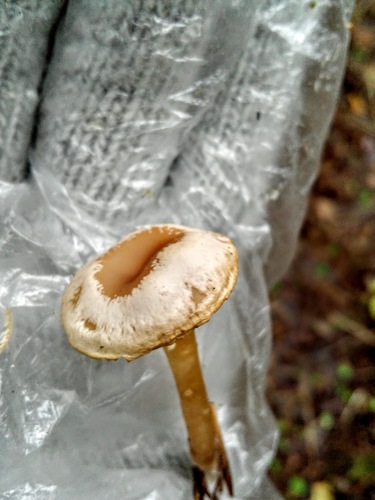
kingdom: Fungi
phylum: Basidiomycota
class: Agaricomycetes
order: Agaricales
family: Tricholomataceae
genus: Clitocybe
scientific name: Clitocybe
